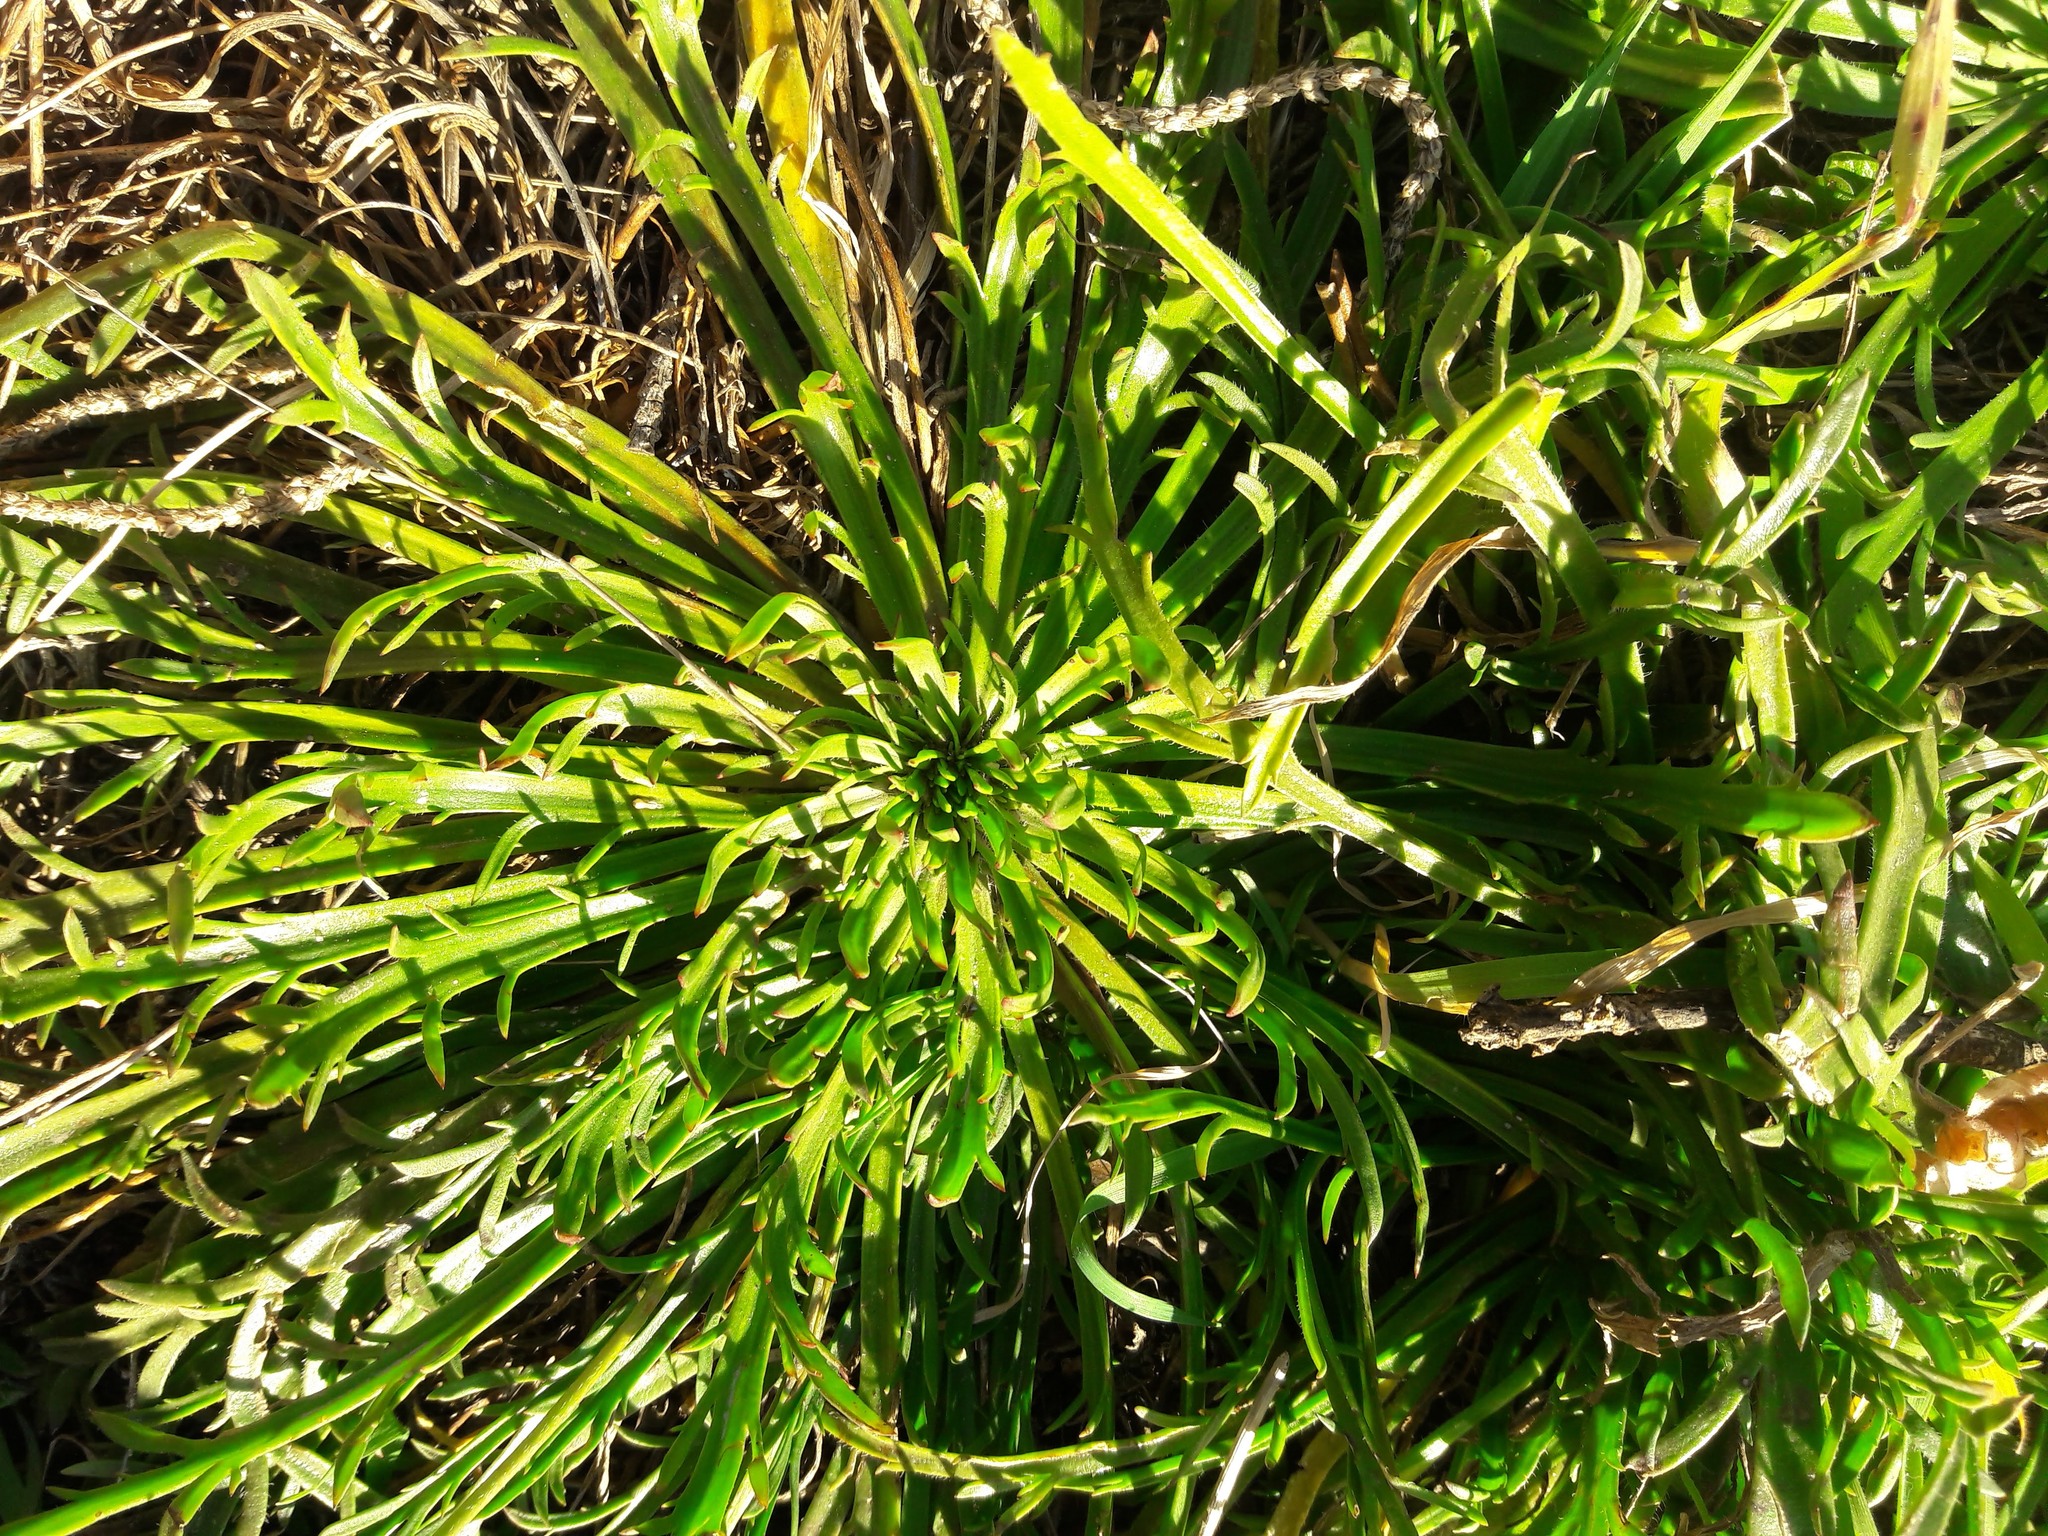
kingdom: Plantae
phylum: Tracheophyta
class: Magnoliopsida
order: Lamiales
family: Plantaginaceae
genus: Plantago
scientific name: Plantago coronopus
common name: Buck's-horn plantain
